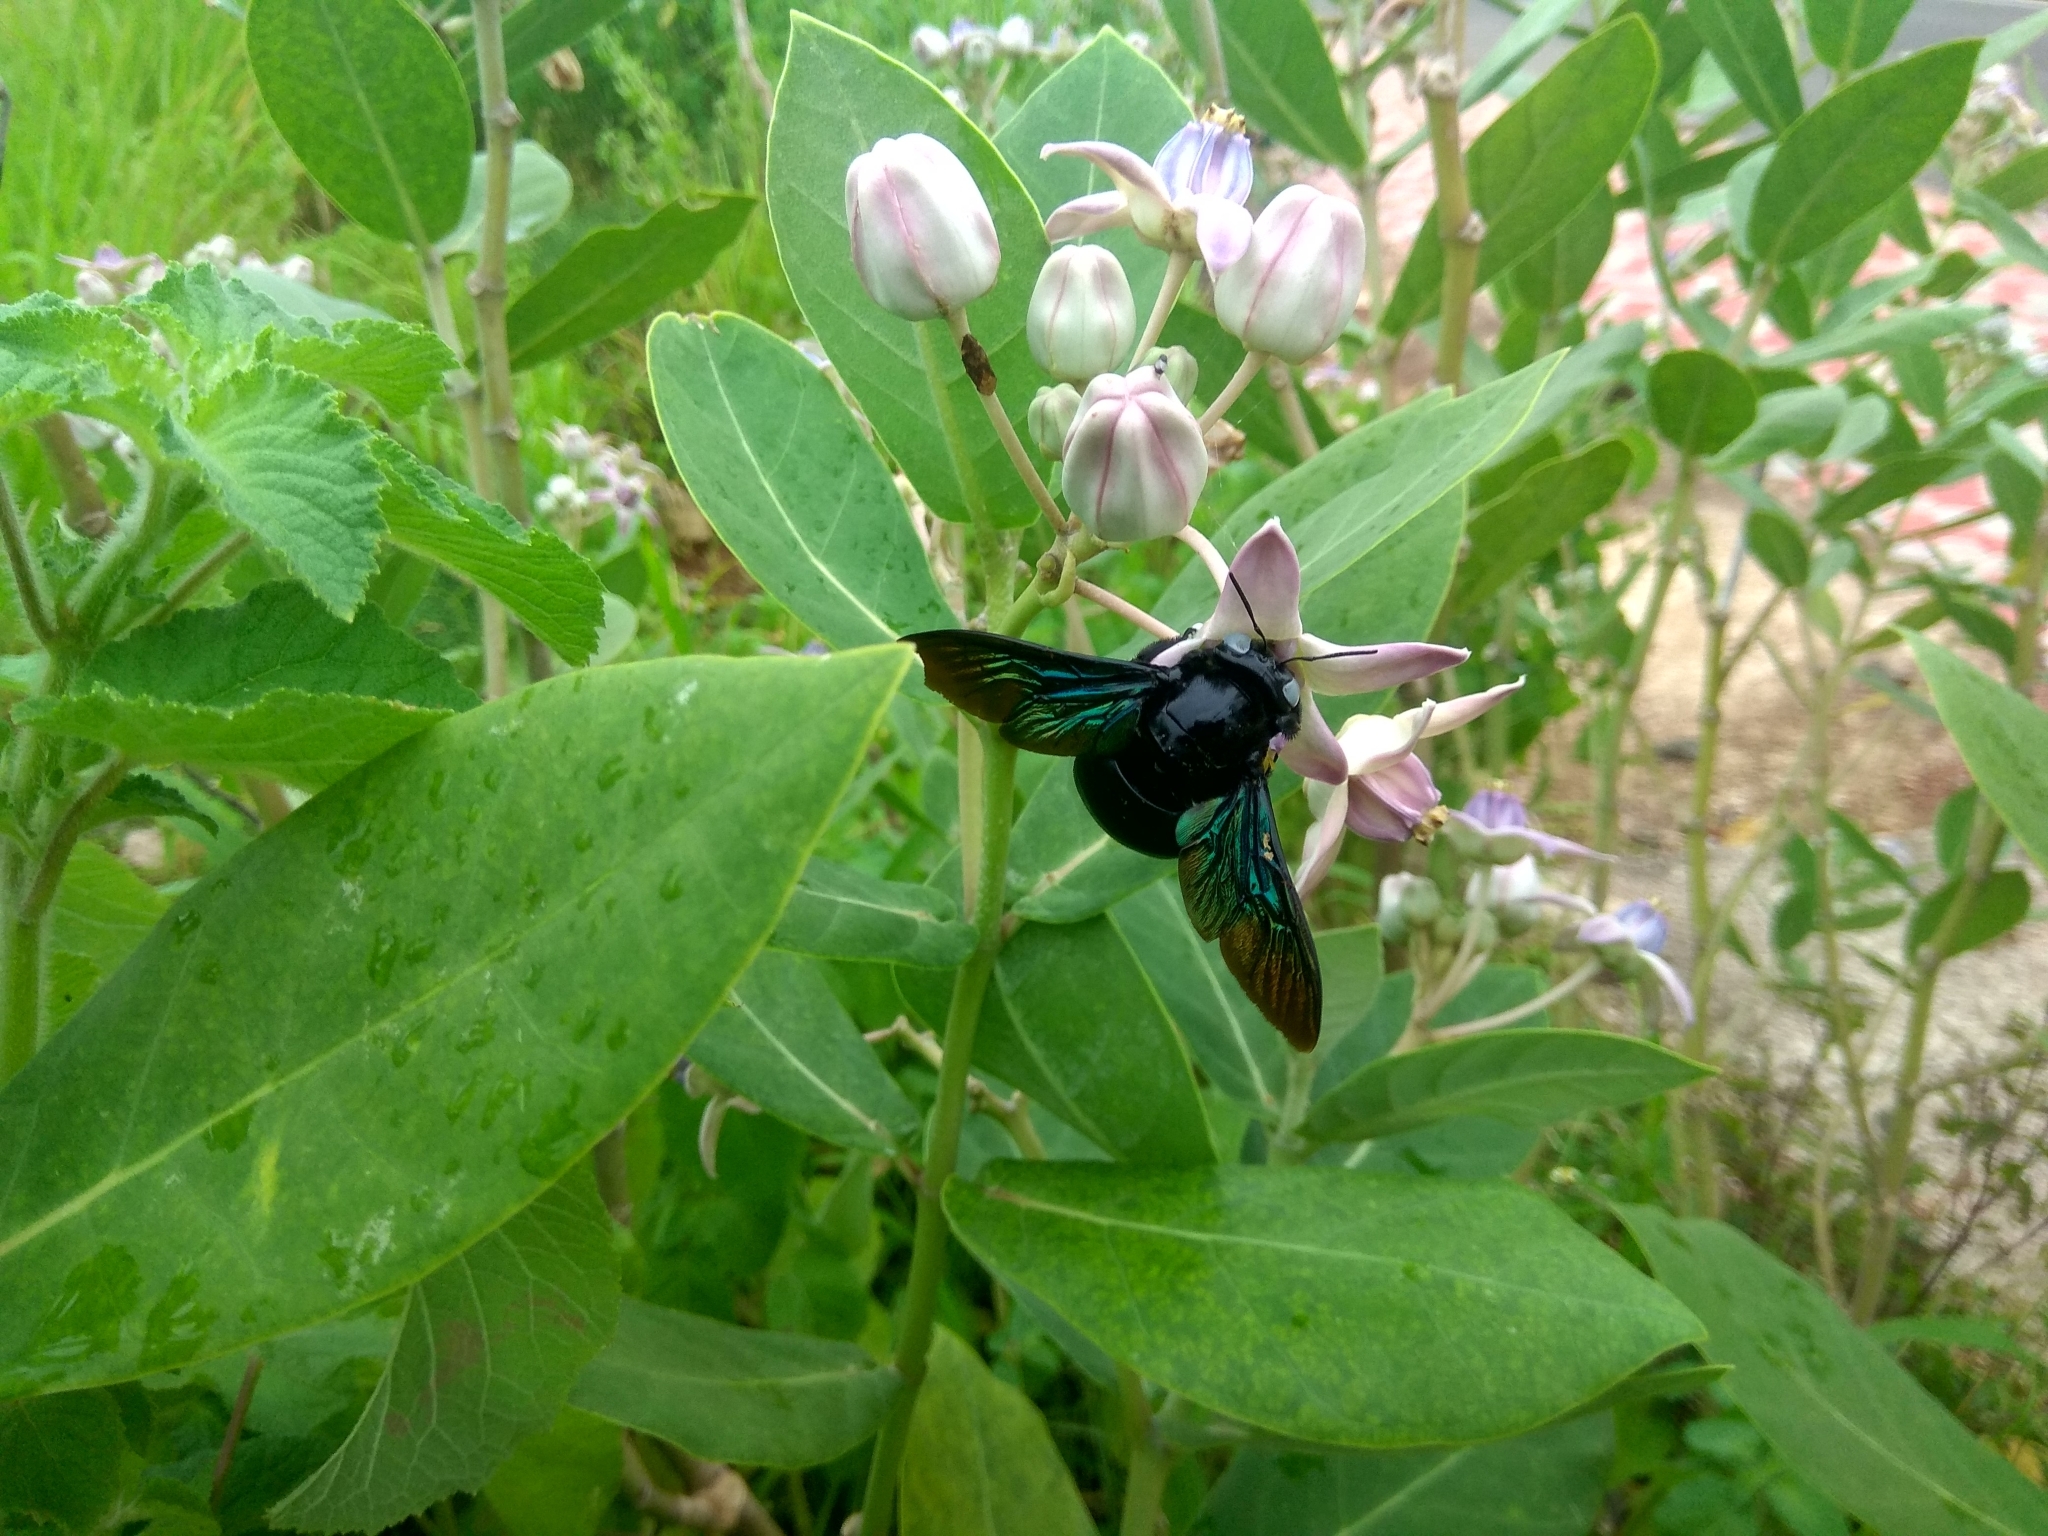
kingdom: Animalia
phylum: Arthropoda
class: Insecta
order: Hymenoptera
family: Apidae
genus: Xylocopa
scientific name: Xylocopa tenuiscapa
